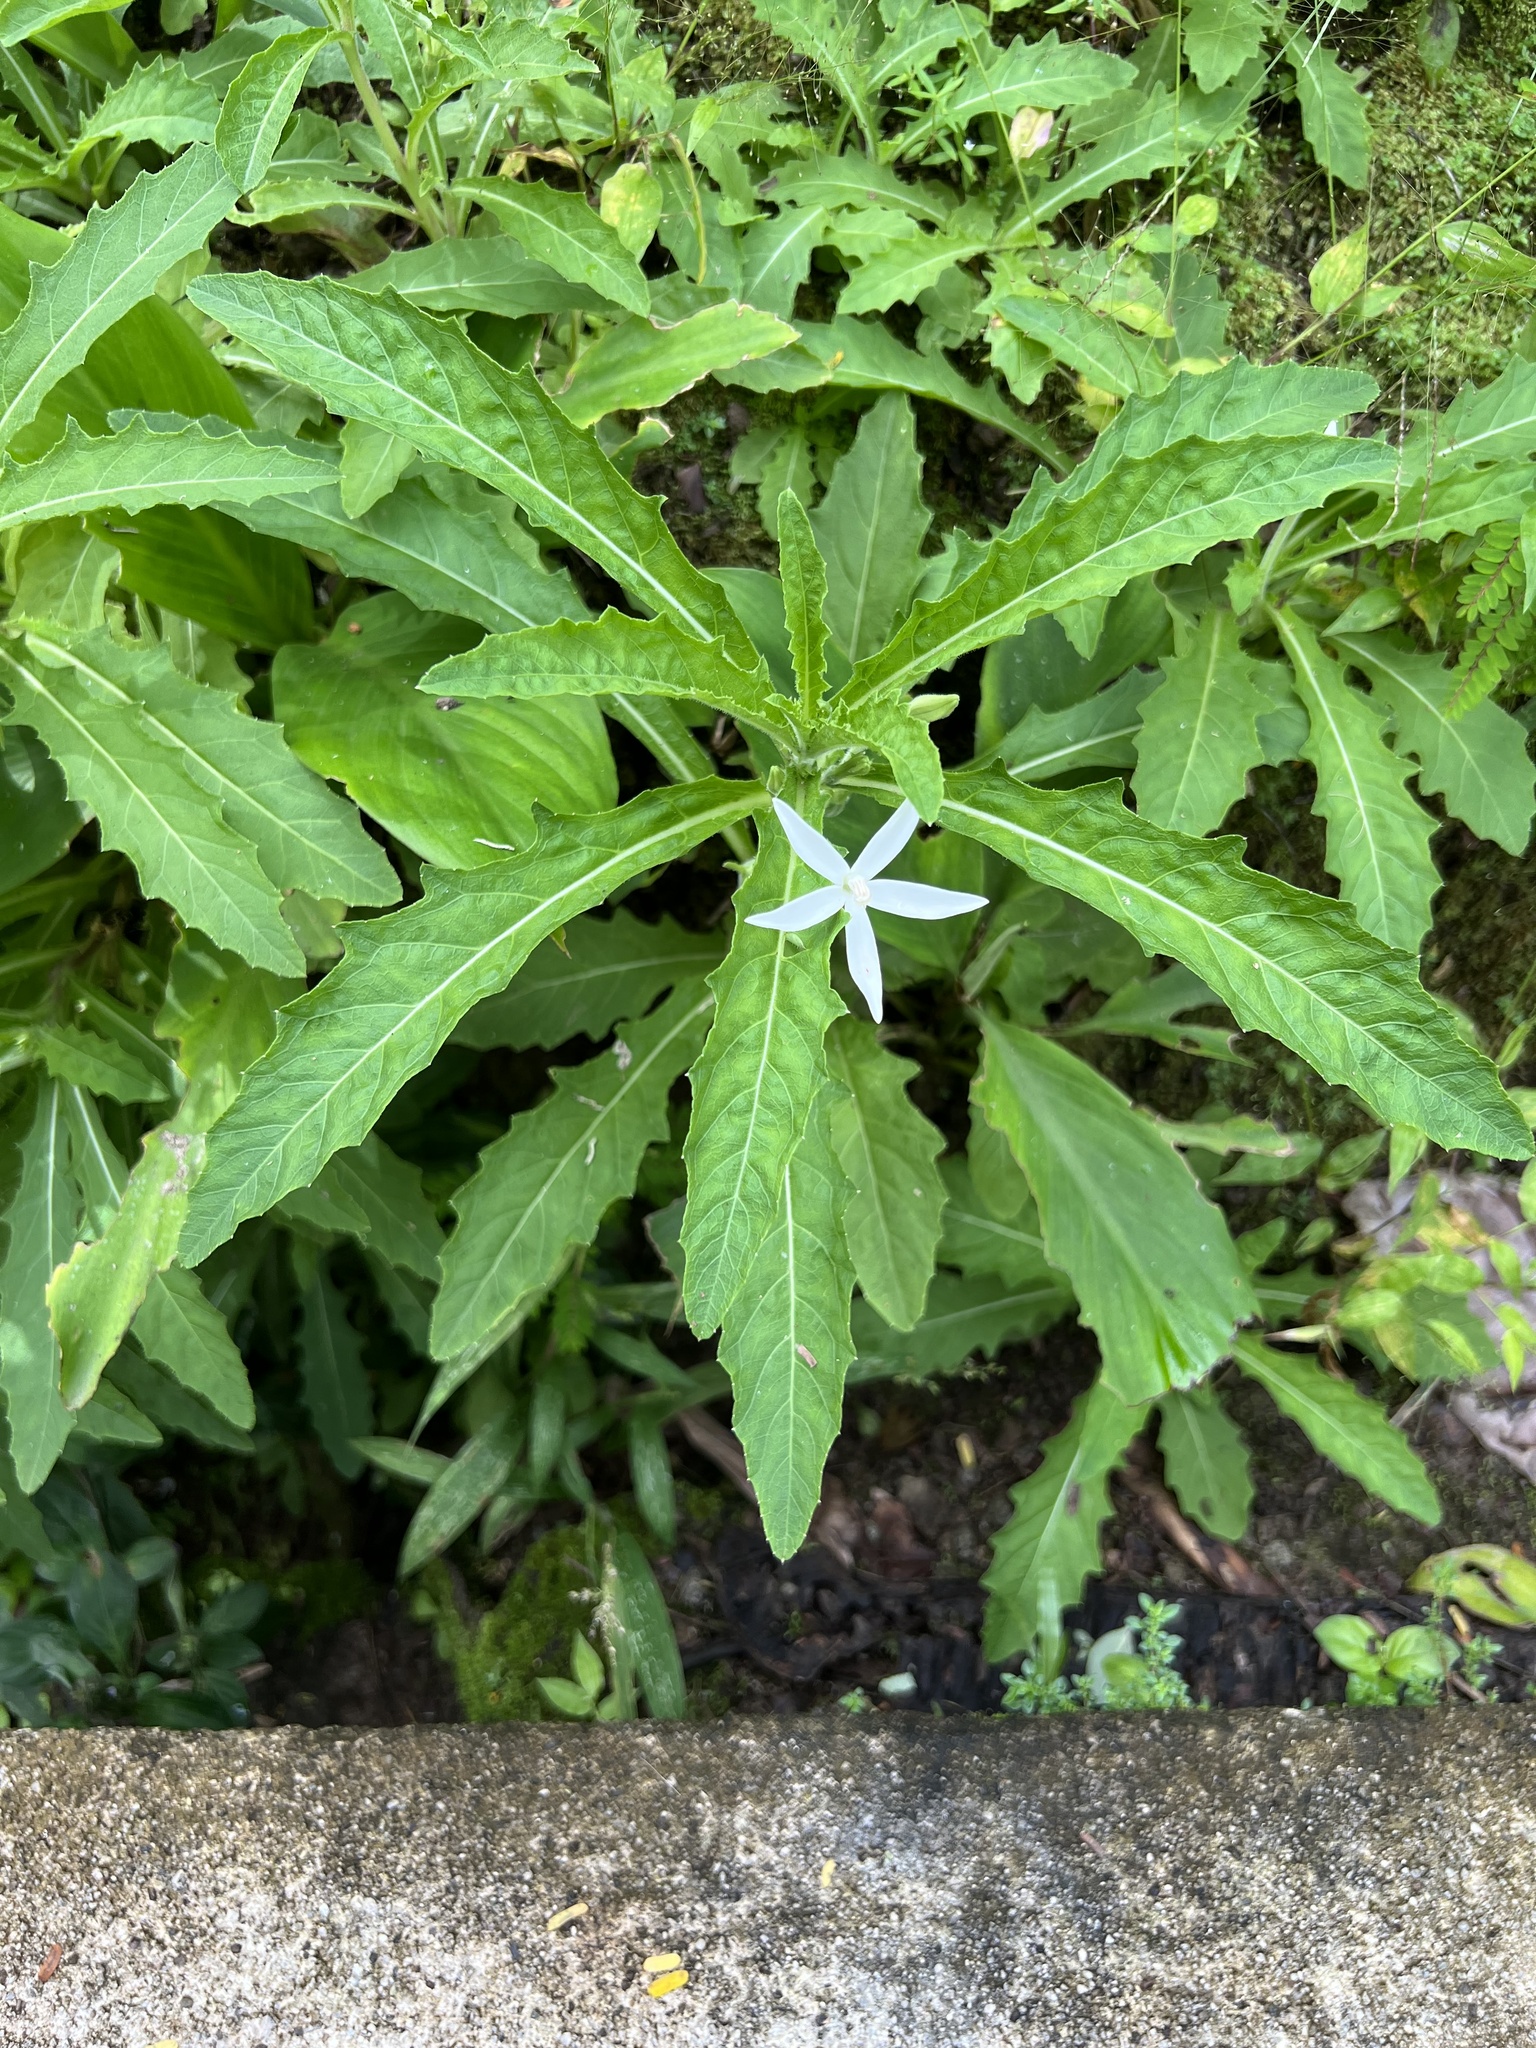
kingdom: Plantae
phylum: Tracheophyta
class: Magnoliopsida
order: Asterales
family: Campanulaceae
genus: Hippobroma
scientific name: Hippobroma longiflora
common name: Madamfate
